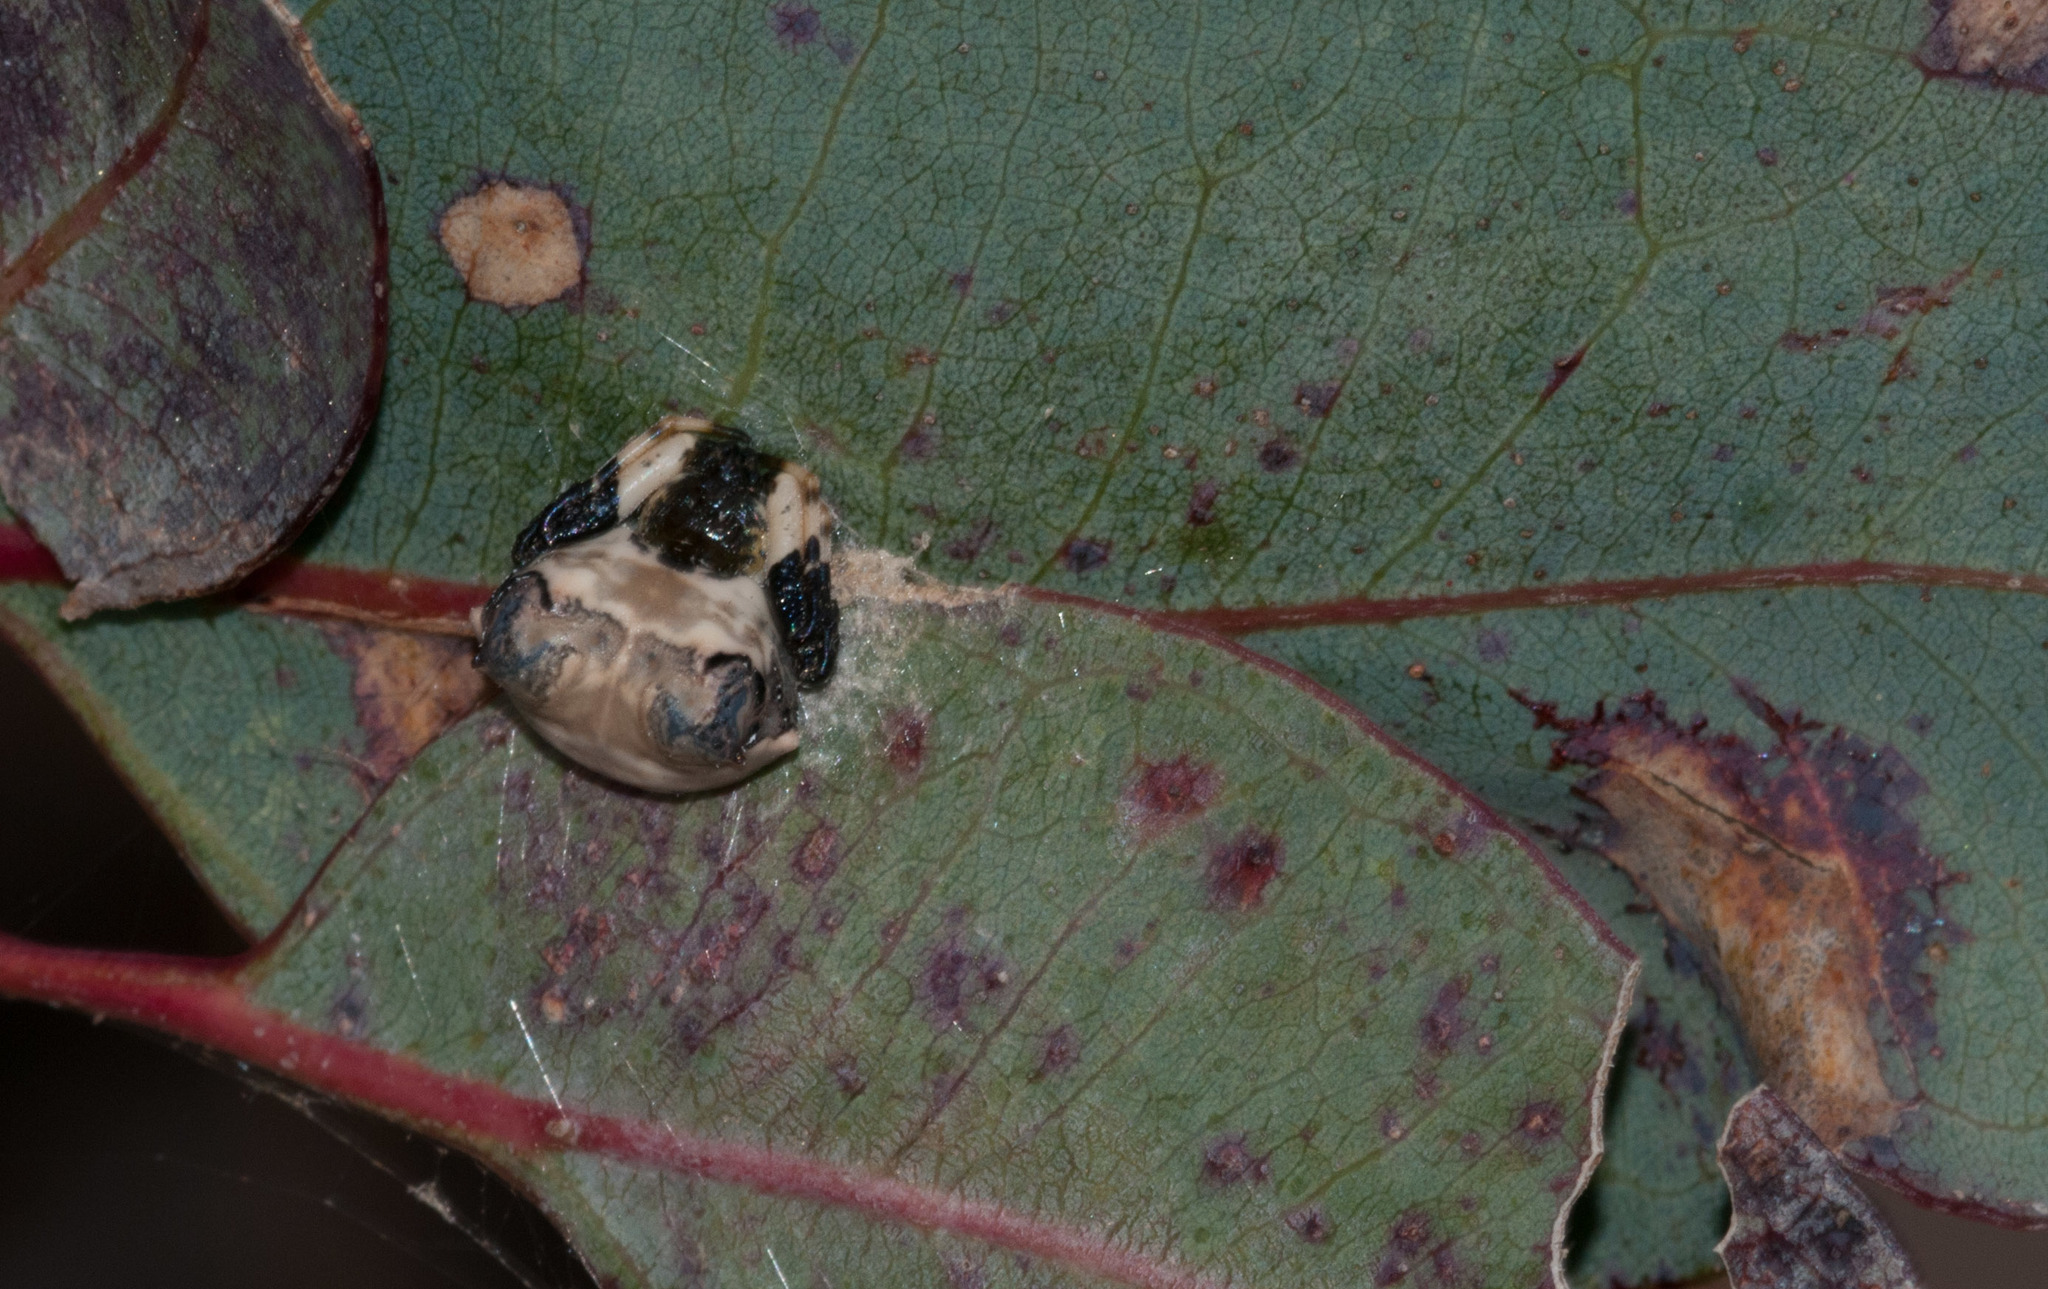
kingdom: Animalia
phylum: Arthropoda
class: Arachnida
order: Araneae
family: Araneidae
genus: Celaenia
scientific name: Celaenia excavata
